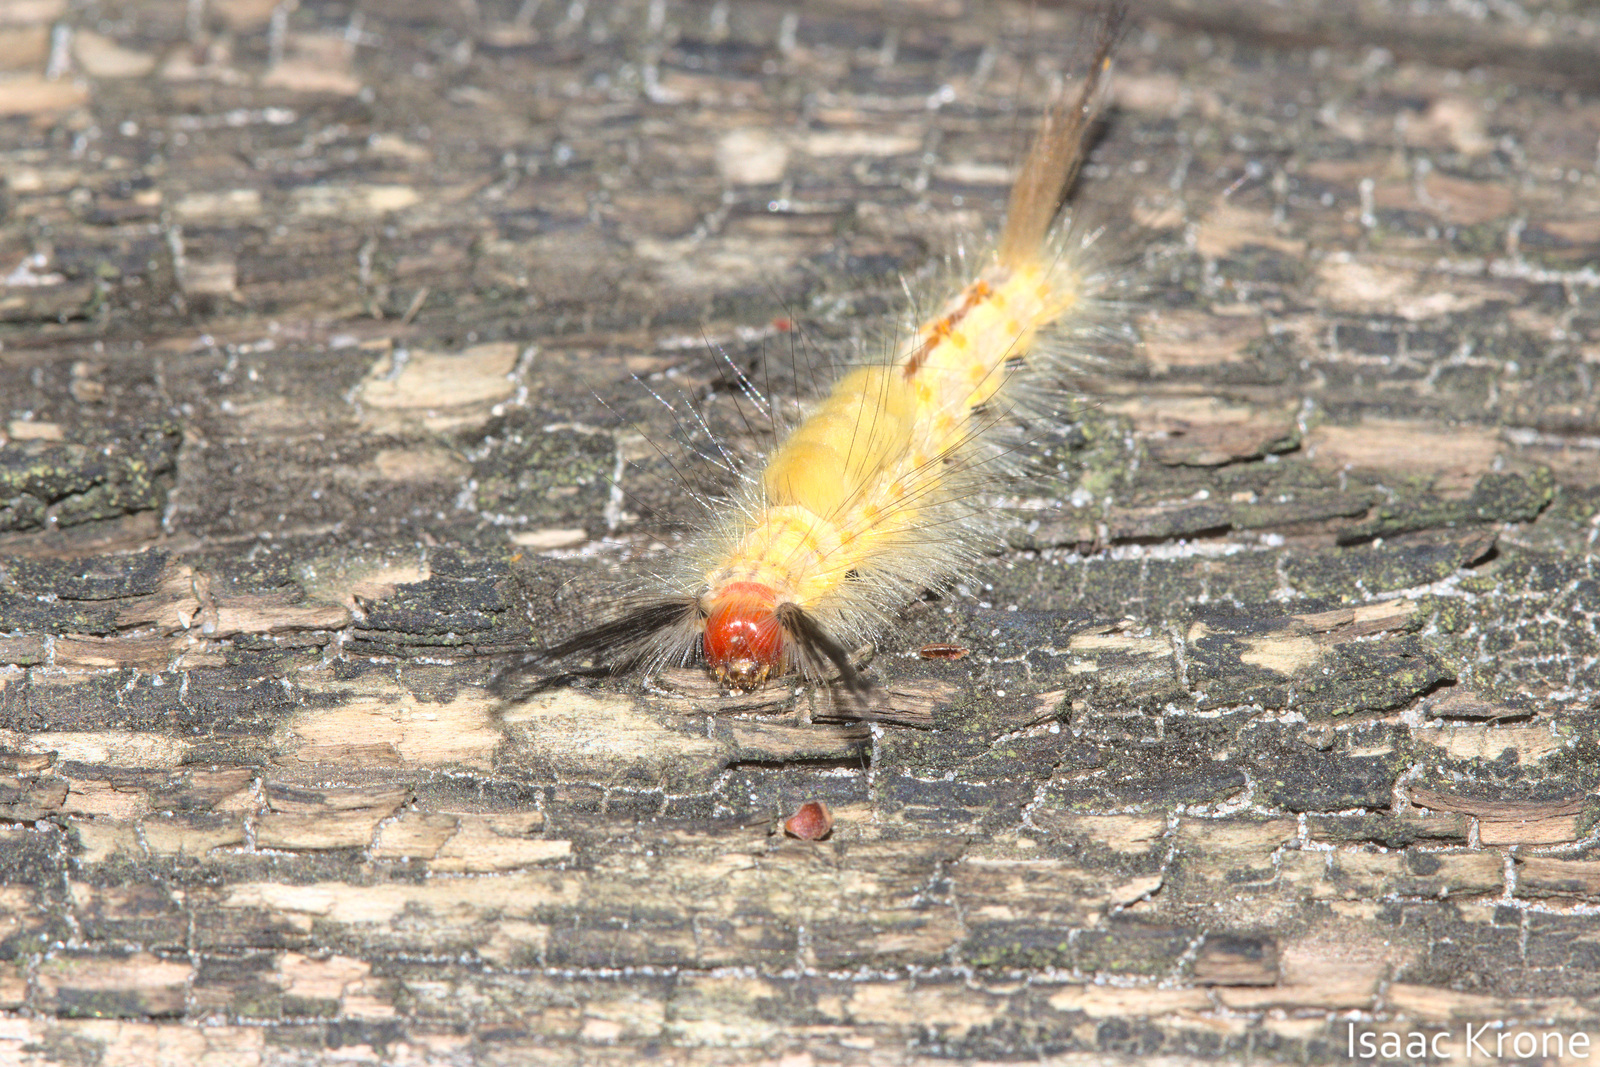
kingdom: Animalia
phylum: Arthropoda
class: Insecta
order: Lepidoptera
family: Erebidae
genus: Orgyia
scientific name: Orgyia detrita
